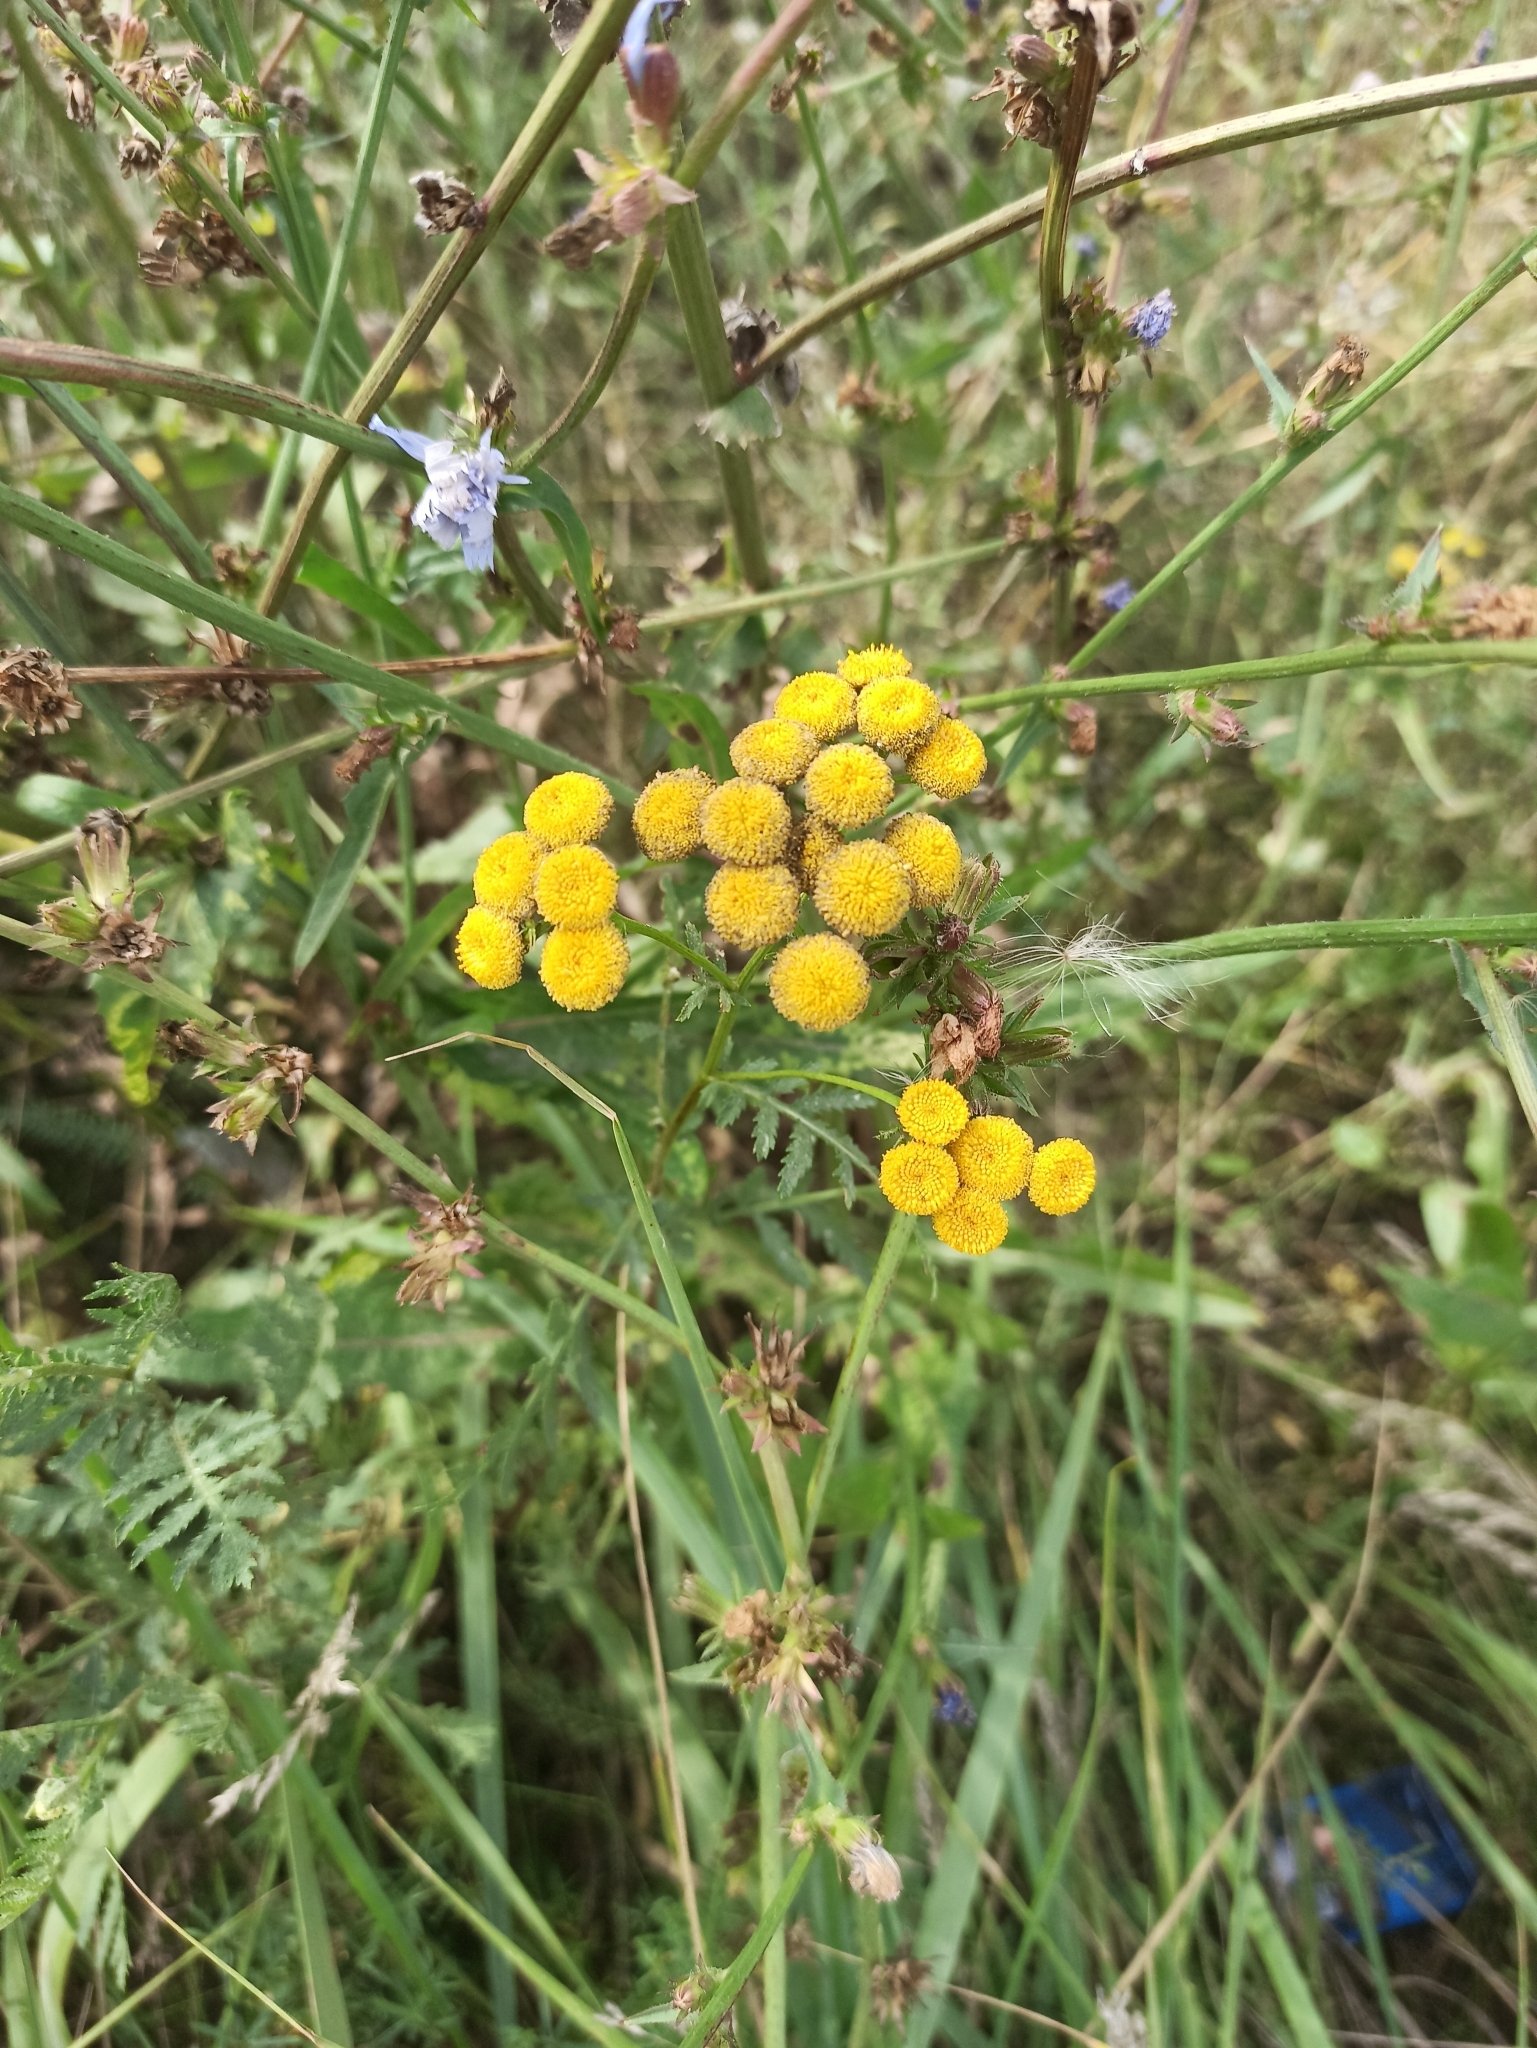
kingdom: Plantae
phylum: Tracheophyta
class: Magnoliopsida
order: Asterales
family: Asteraceae
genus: Tanacetum
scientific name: Tanacetum vulgare
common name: Common tansy
